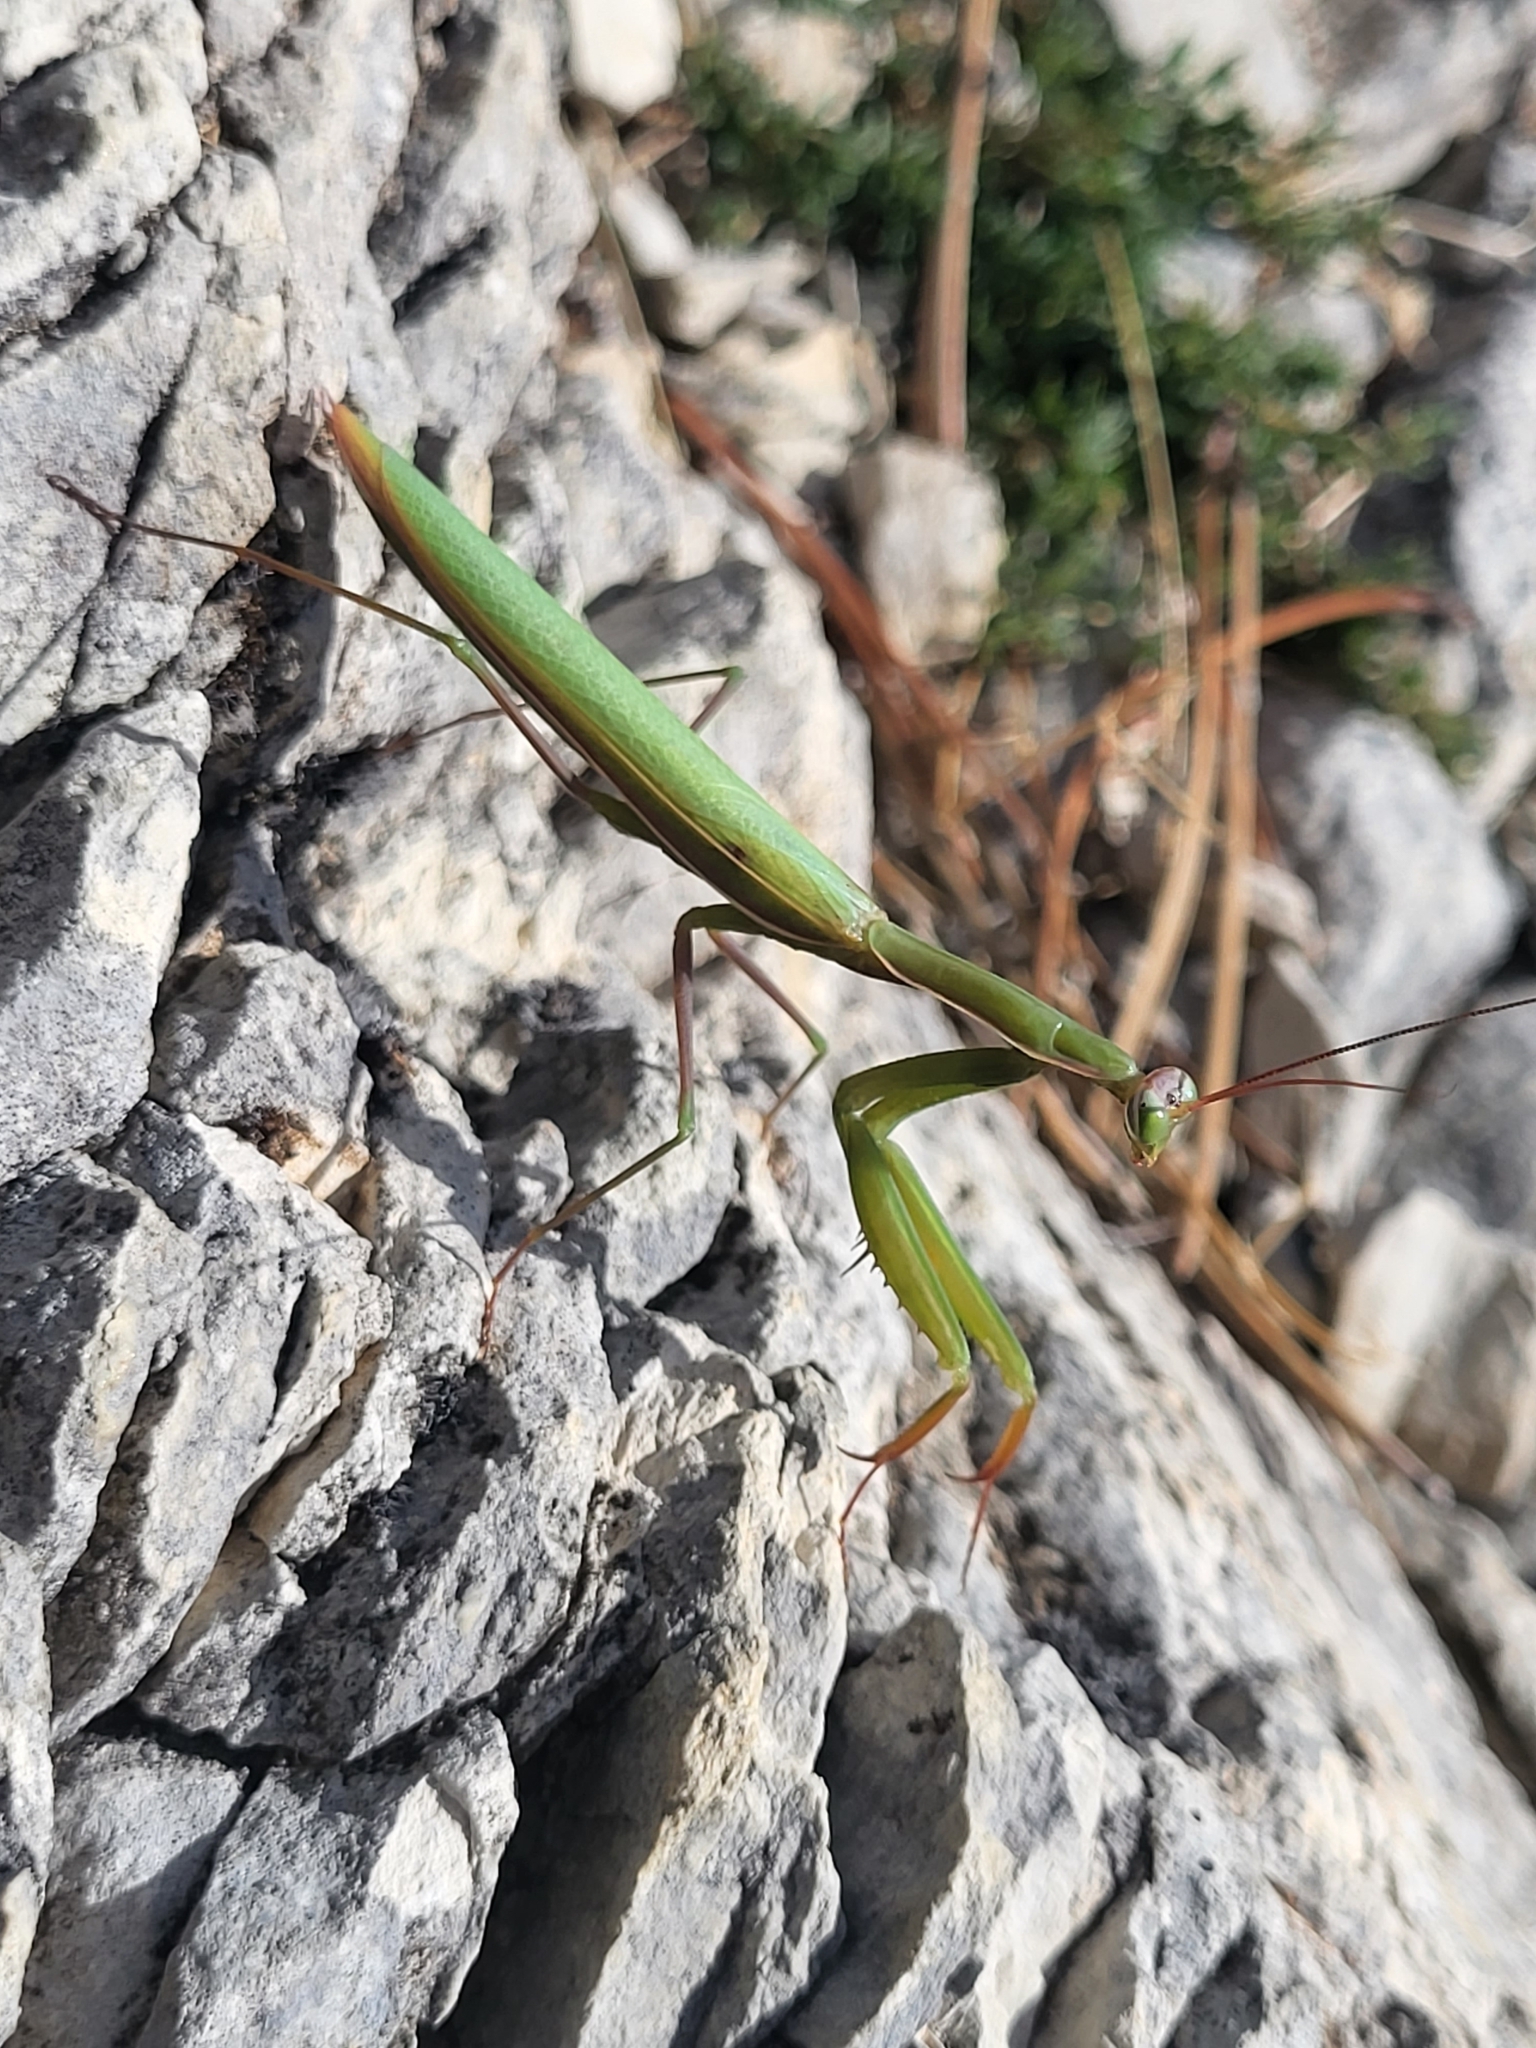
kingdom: Animalia
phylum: Arthropoda
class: Insecta
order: Mantodea
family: Mantidae
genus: Mantis
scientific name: Mantis religiosa
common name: Praying mantis
